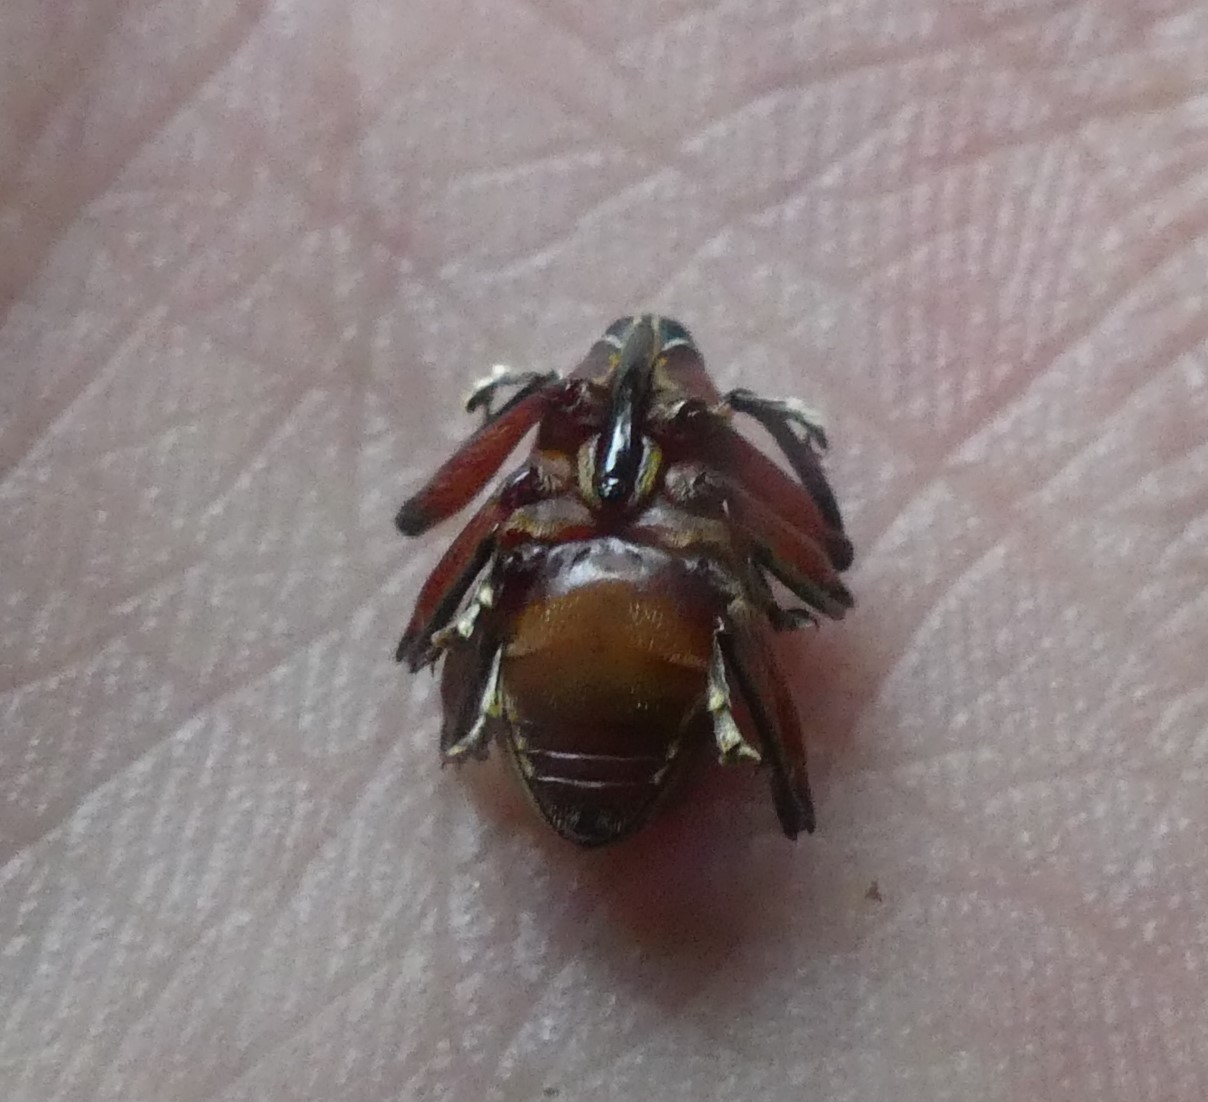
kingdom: Animalia
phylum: Arthropoda
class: Insecta
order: Coleoptera
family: Curculionidae
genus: Enteles
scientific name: Enteles vigorsii
